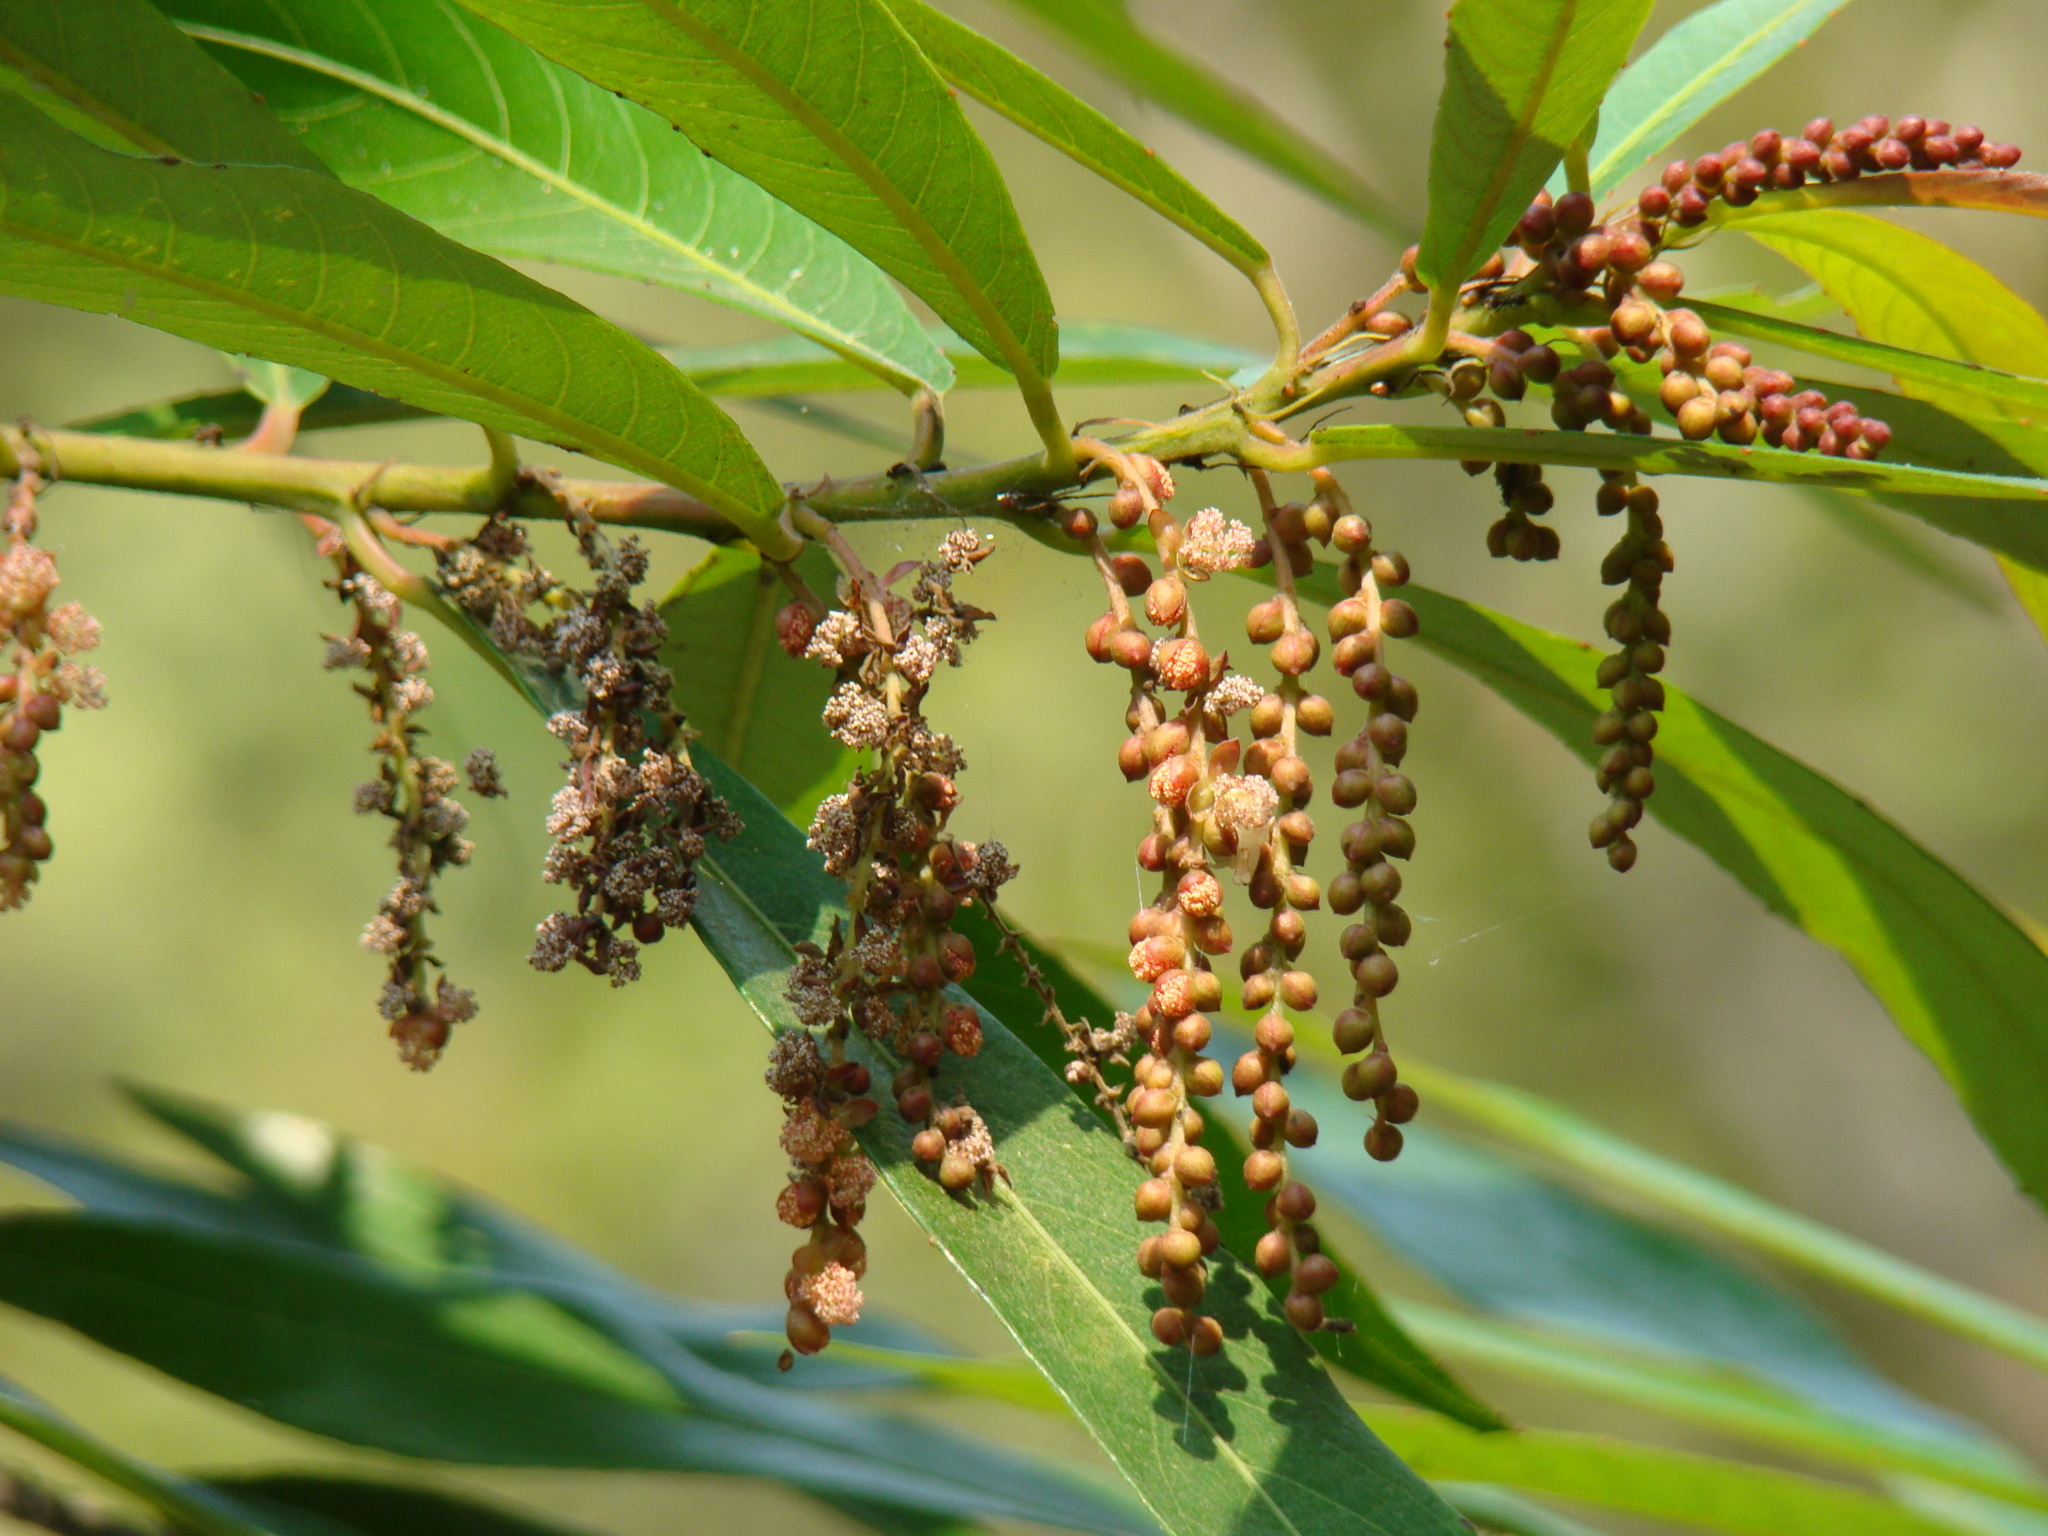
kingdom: Plantae
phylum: Tracheophyta
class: Magnoliopsida
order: Malpighiales
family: Euphorbiaceae
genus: Homonoia
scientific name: Homonoia riparia
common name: Willow-leaved water croton
